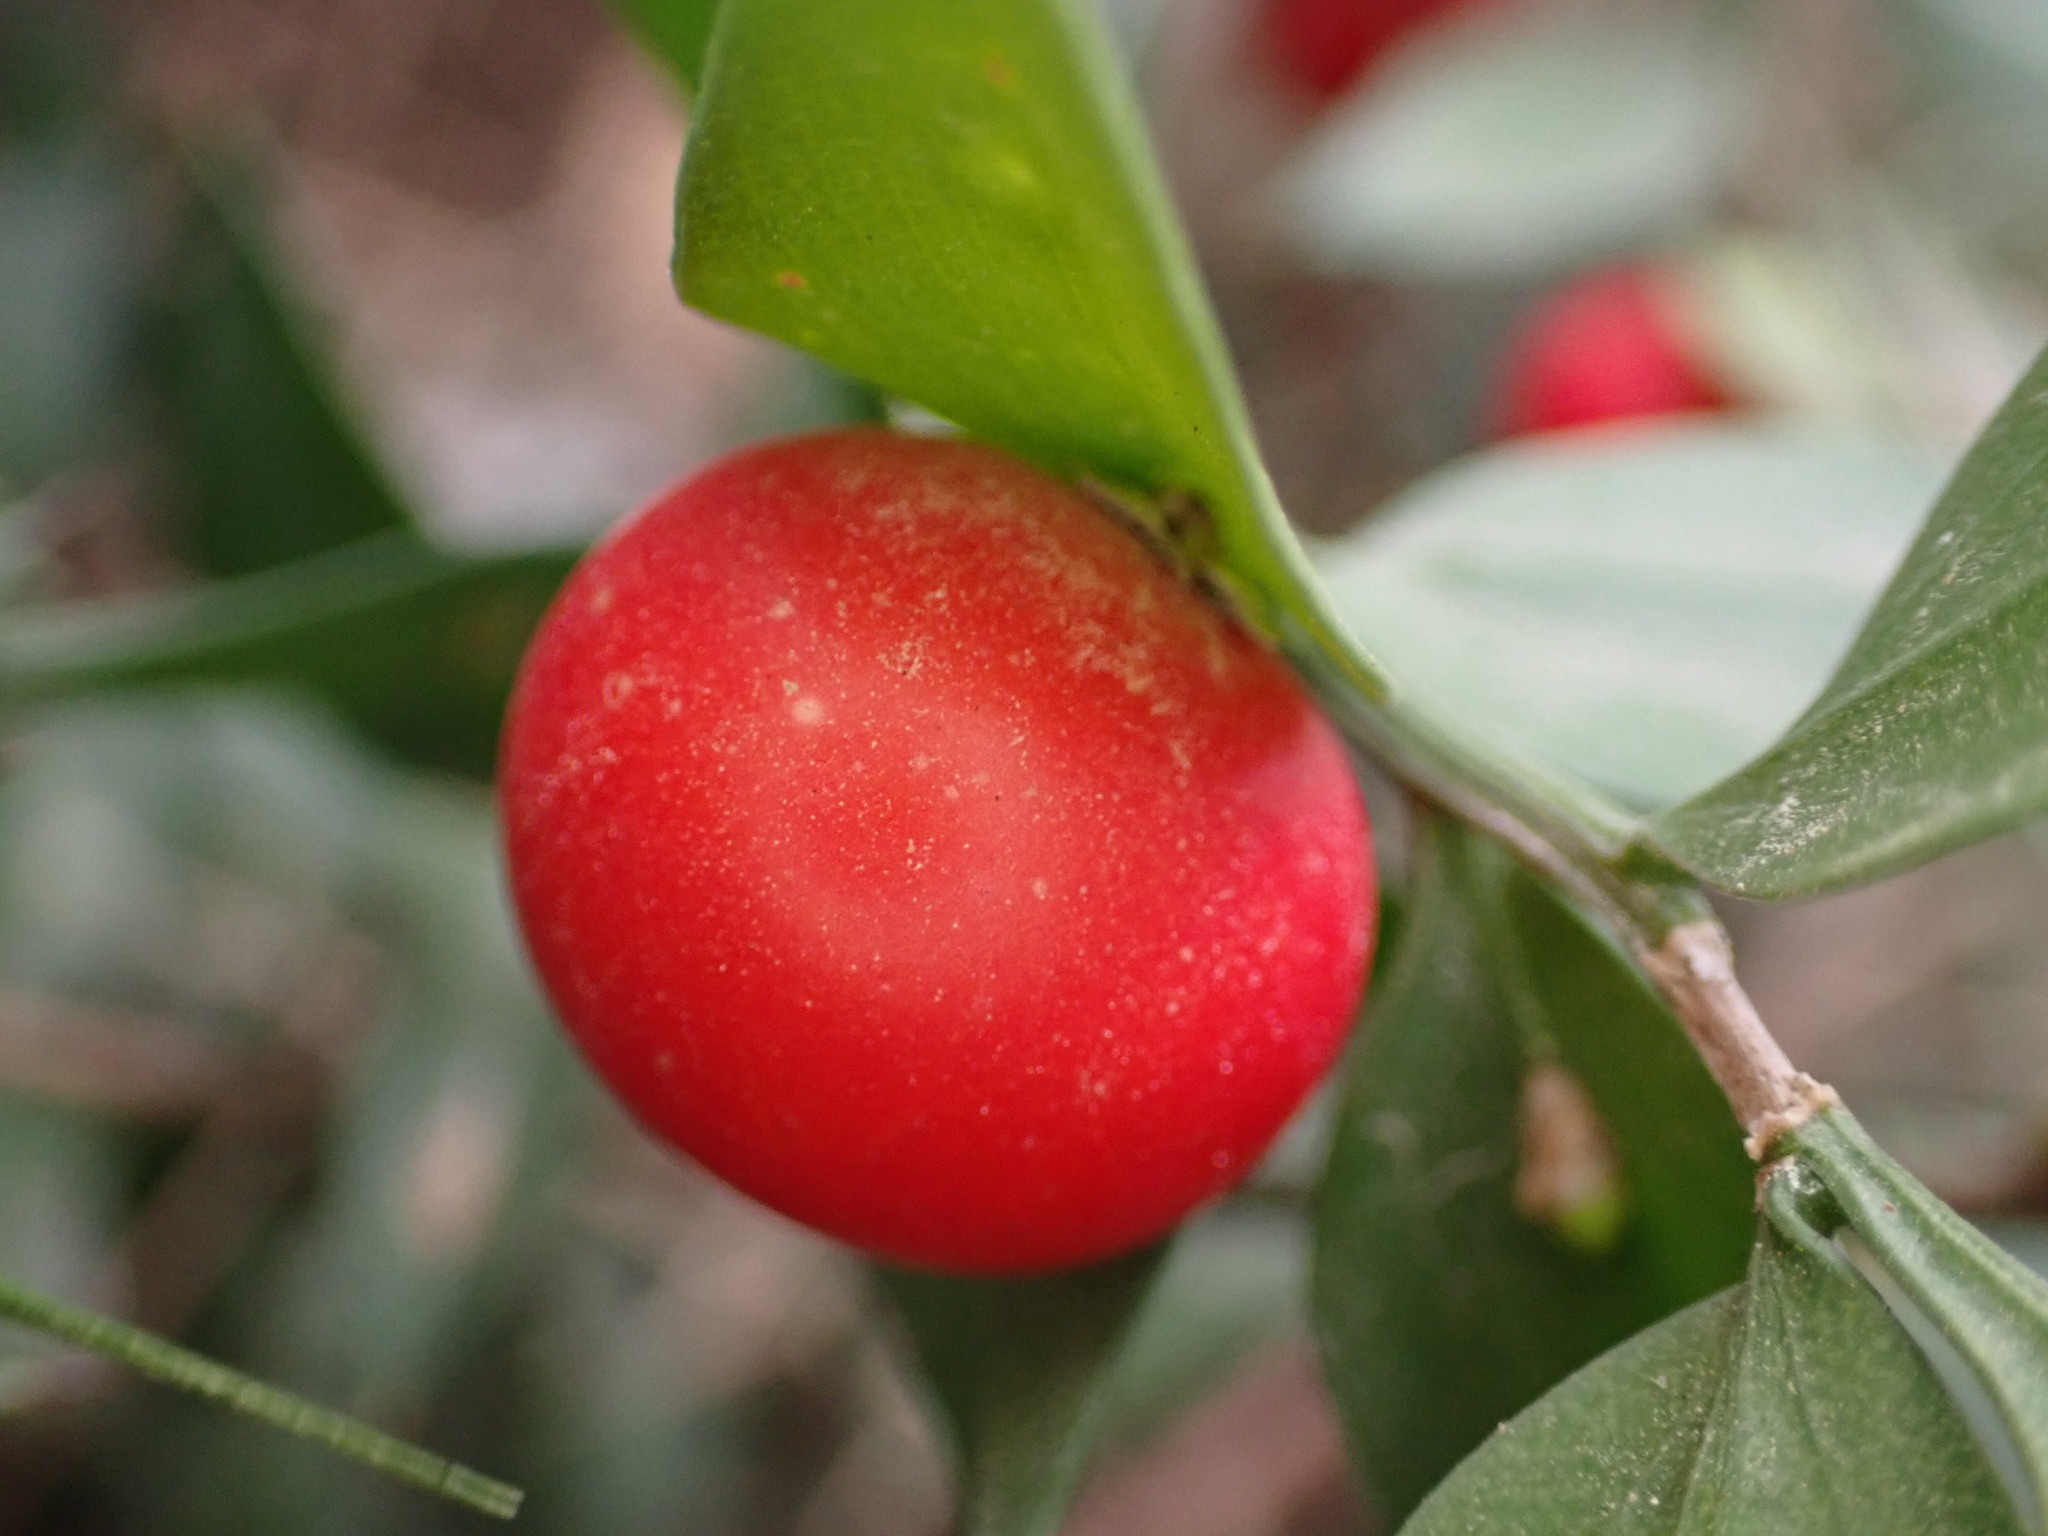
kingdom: Plantae
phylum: Tracheophyta
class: Liliopsida
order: Asparagales
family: Asparagaceae
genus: Ruscus
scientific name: Ruscus aculeatus
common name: Butcher's-broom
